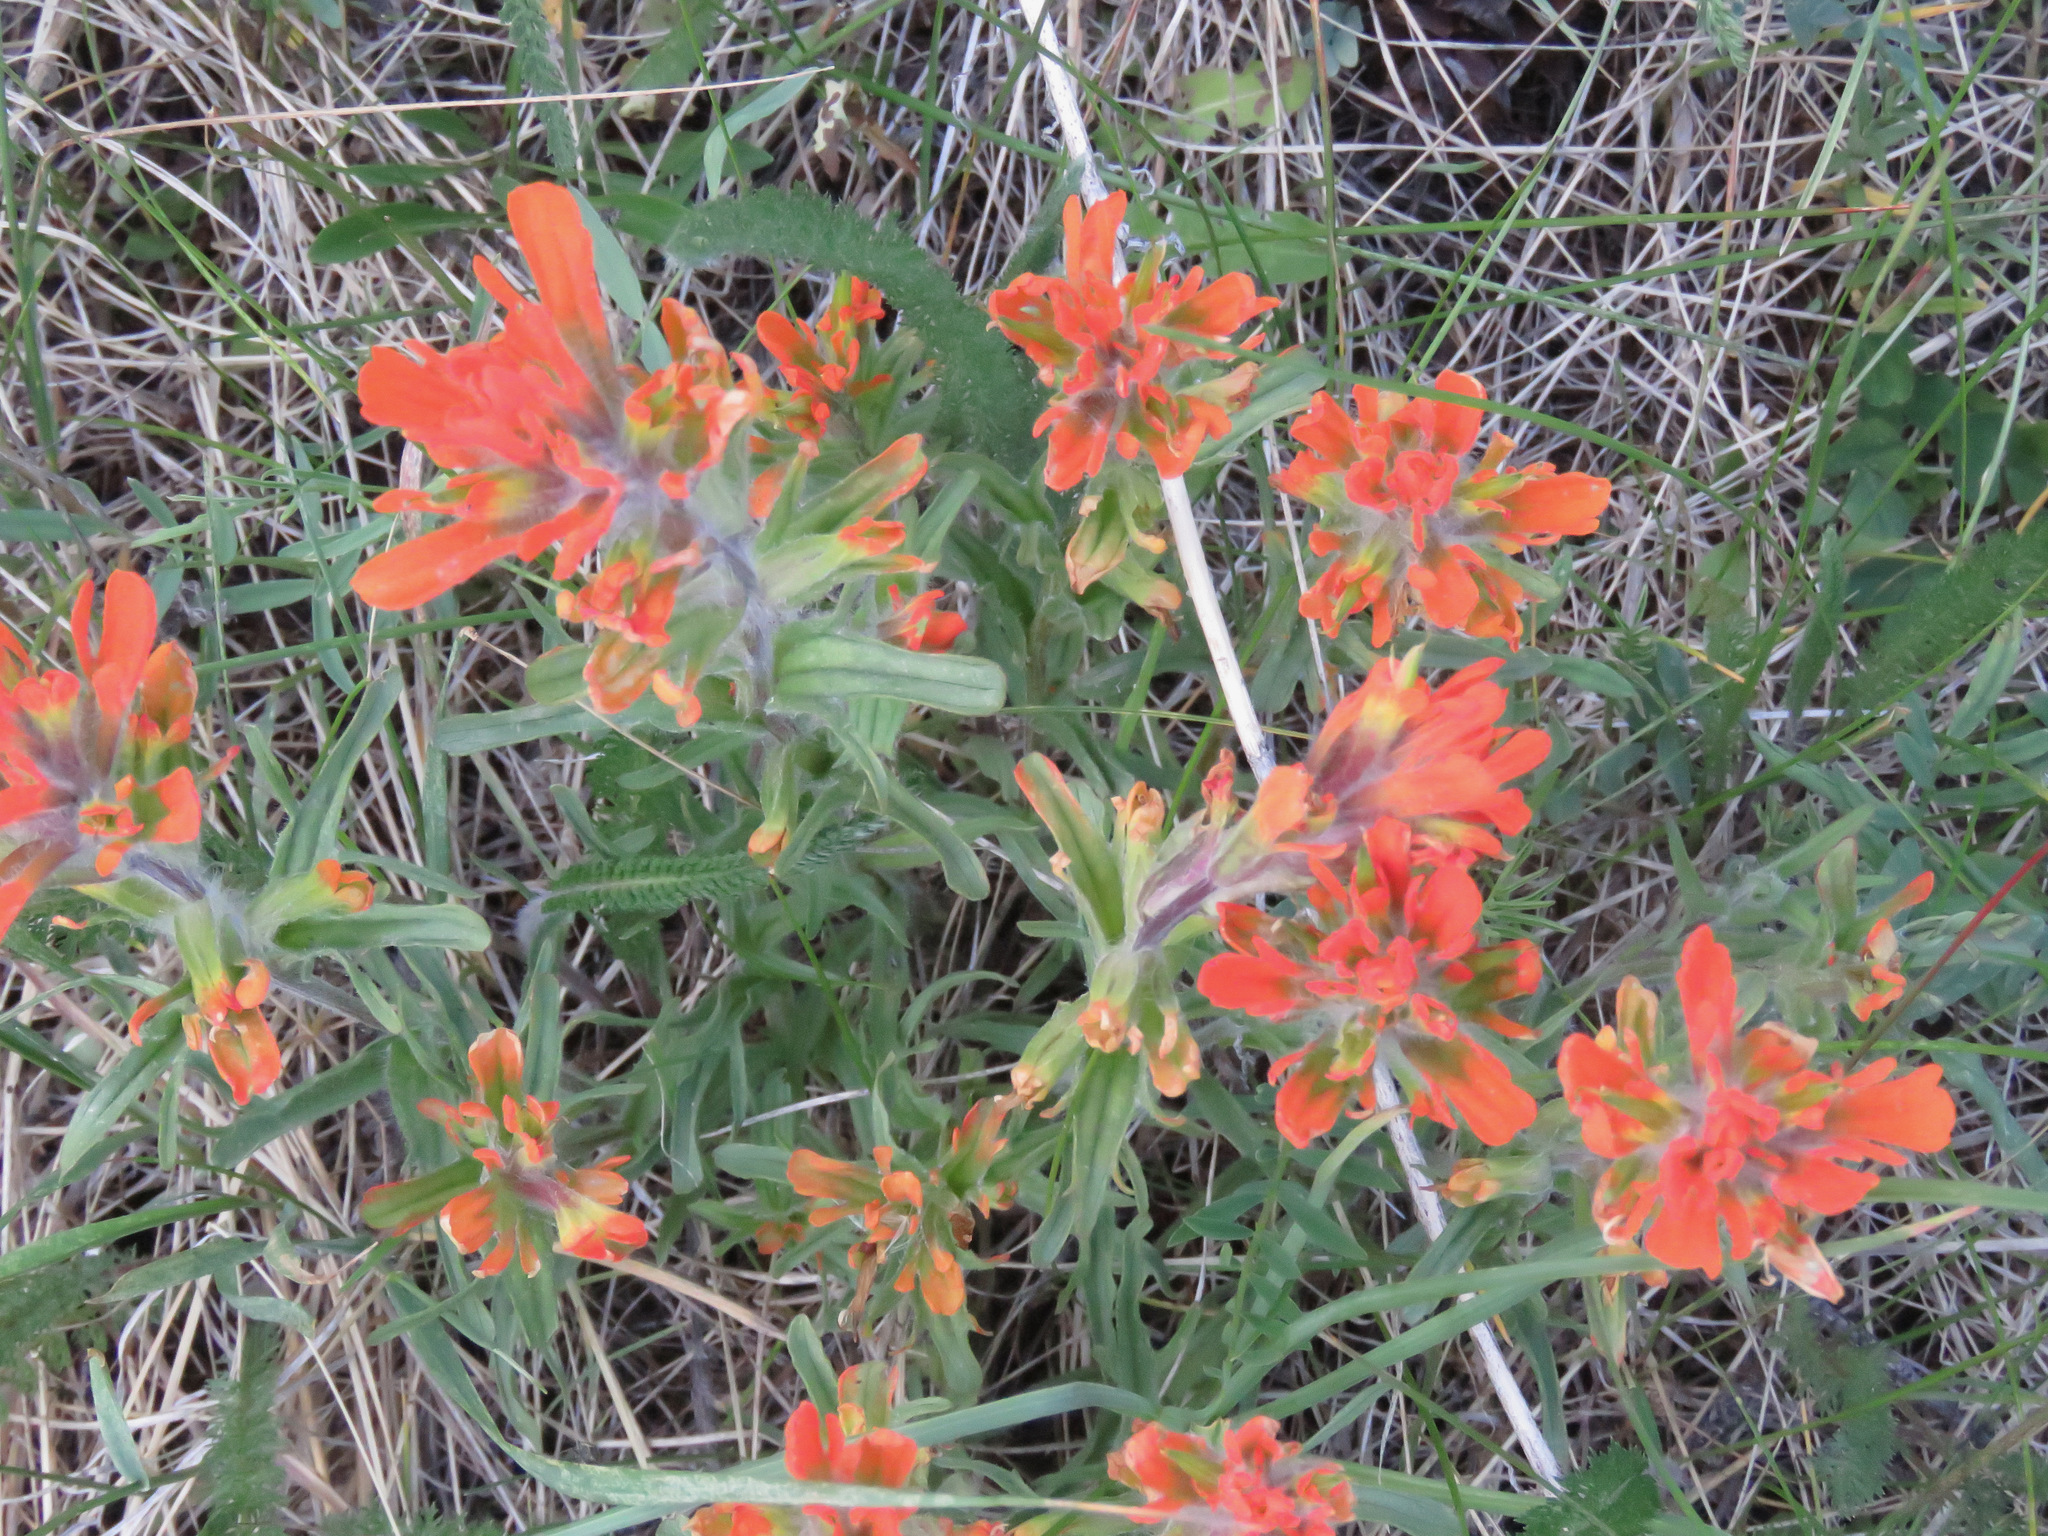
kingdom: Plantae
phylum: Tracheophyta
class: Magnoliopsida
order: Lamiales
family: Orobanchaceae
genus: Castilleja
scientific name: Castilleja hispida
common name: Bristly paintbrush
